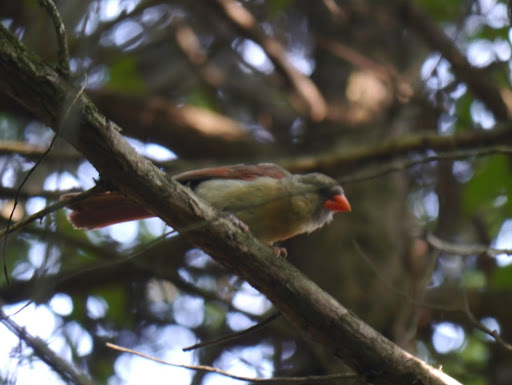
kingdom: Animalia
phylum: Chordata
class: Aves
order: Passeriformes
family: Cardinalidae
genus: Cardinalis
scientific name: Cardinalis cardinalis
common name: Northern cardinal
